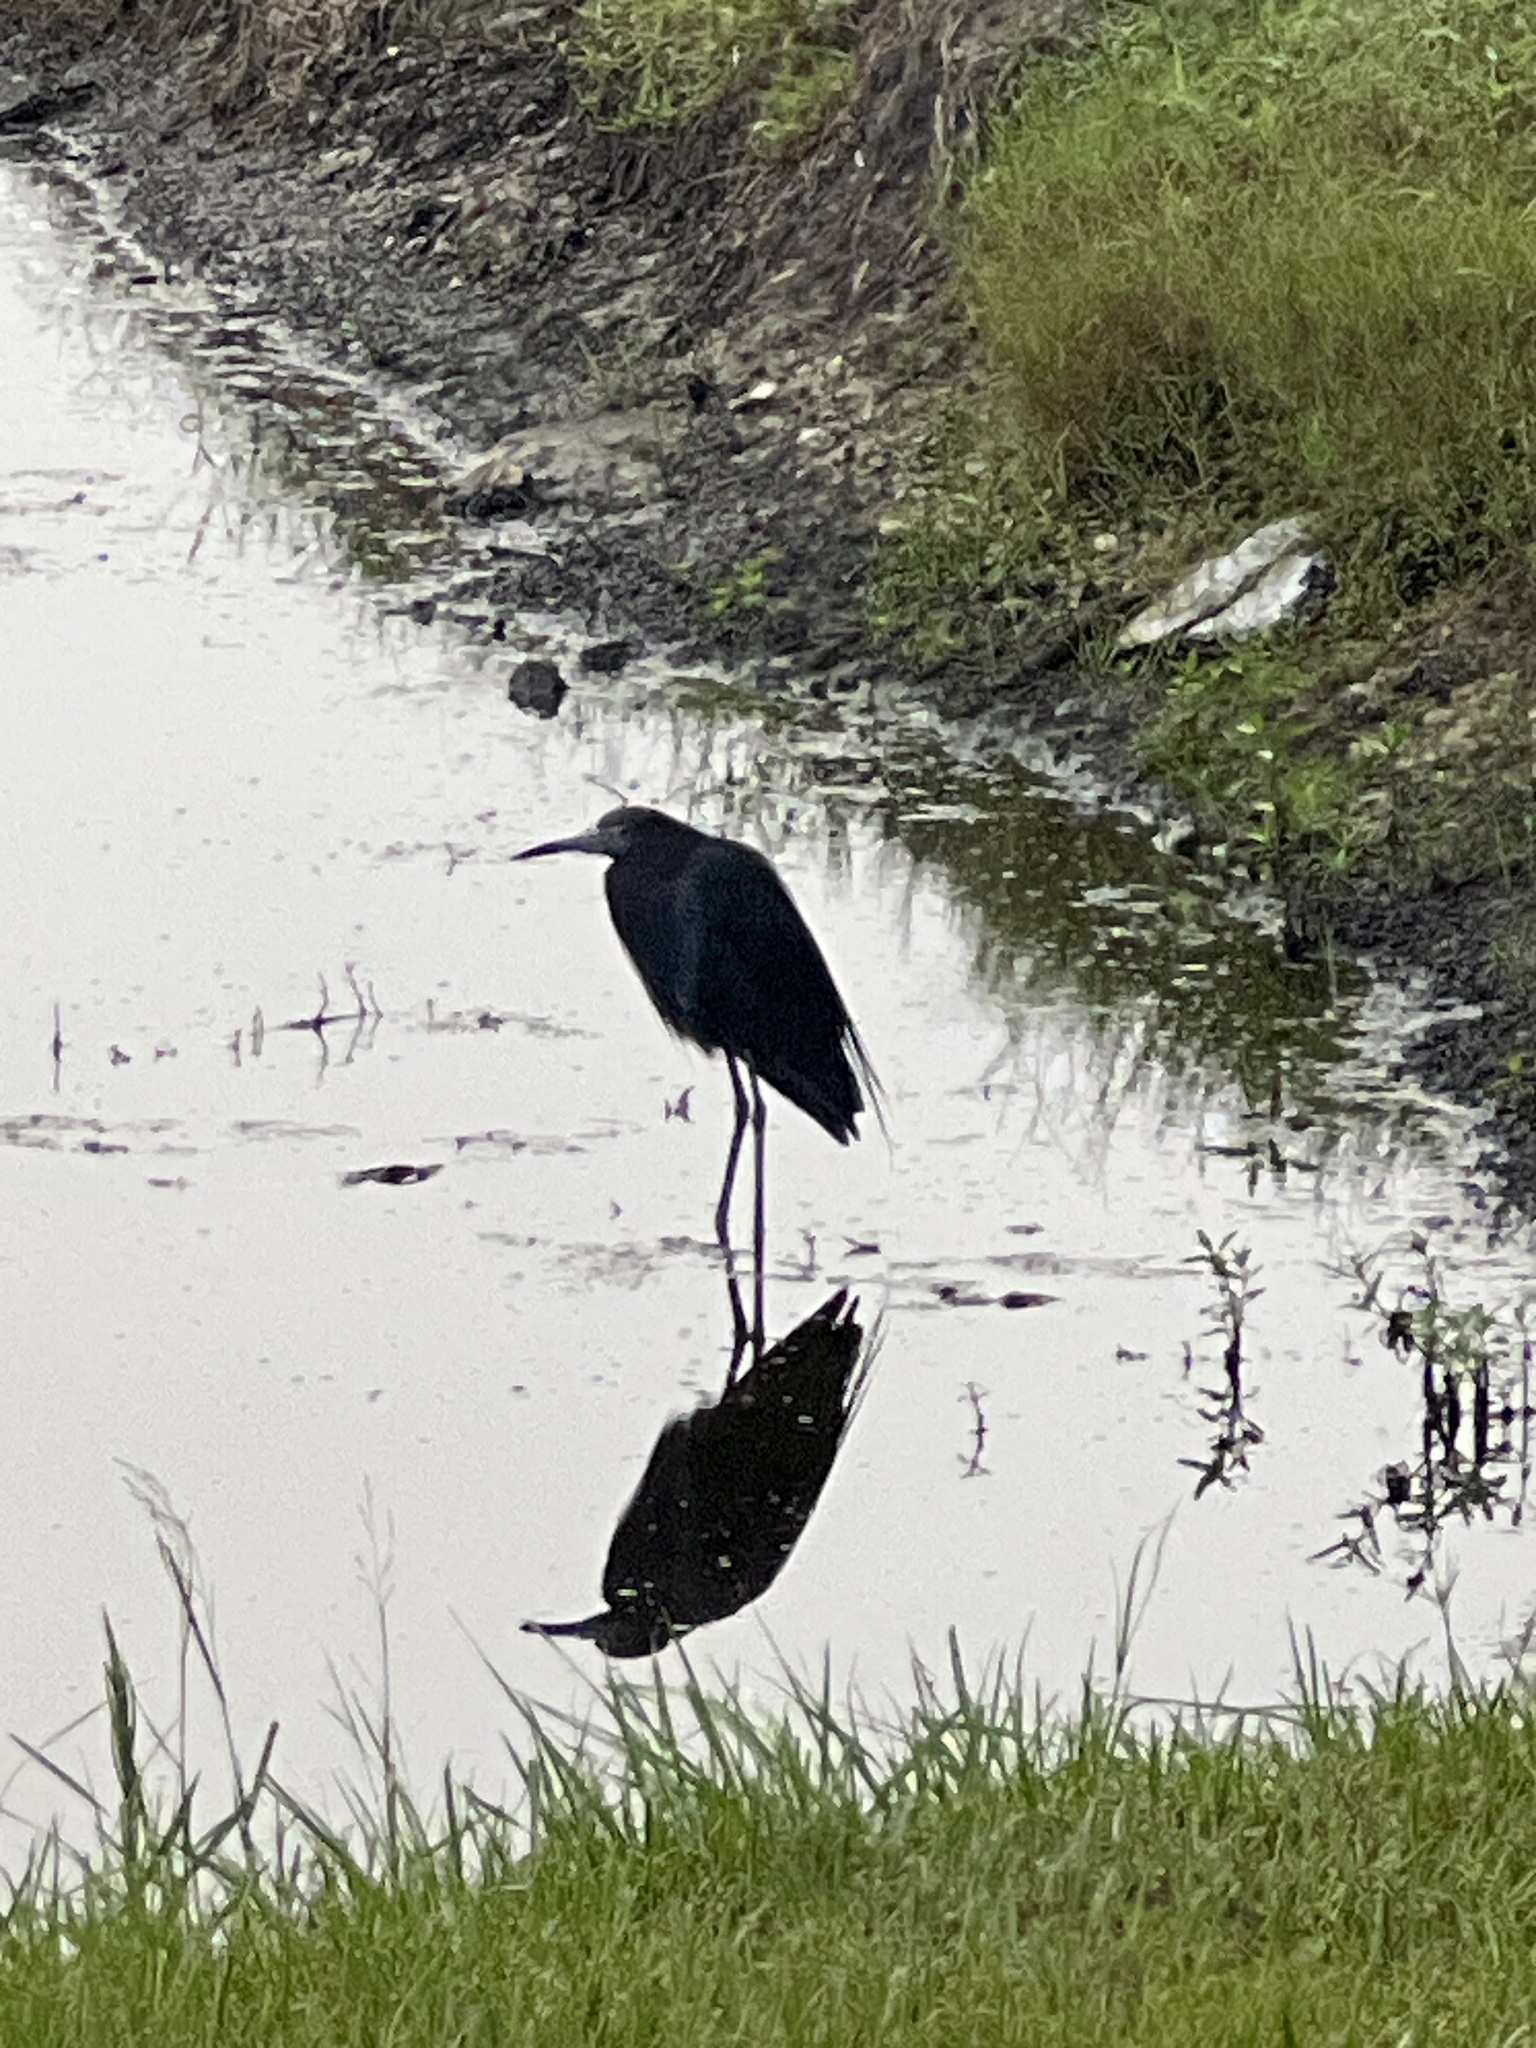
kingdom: Animalia
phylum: Chordata
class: Aves
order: Pelecaniformes
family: Ardeidae
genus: Egretta
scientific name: Egretta caerulea
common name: Little blue heron
